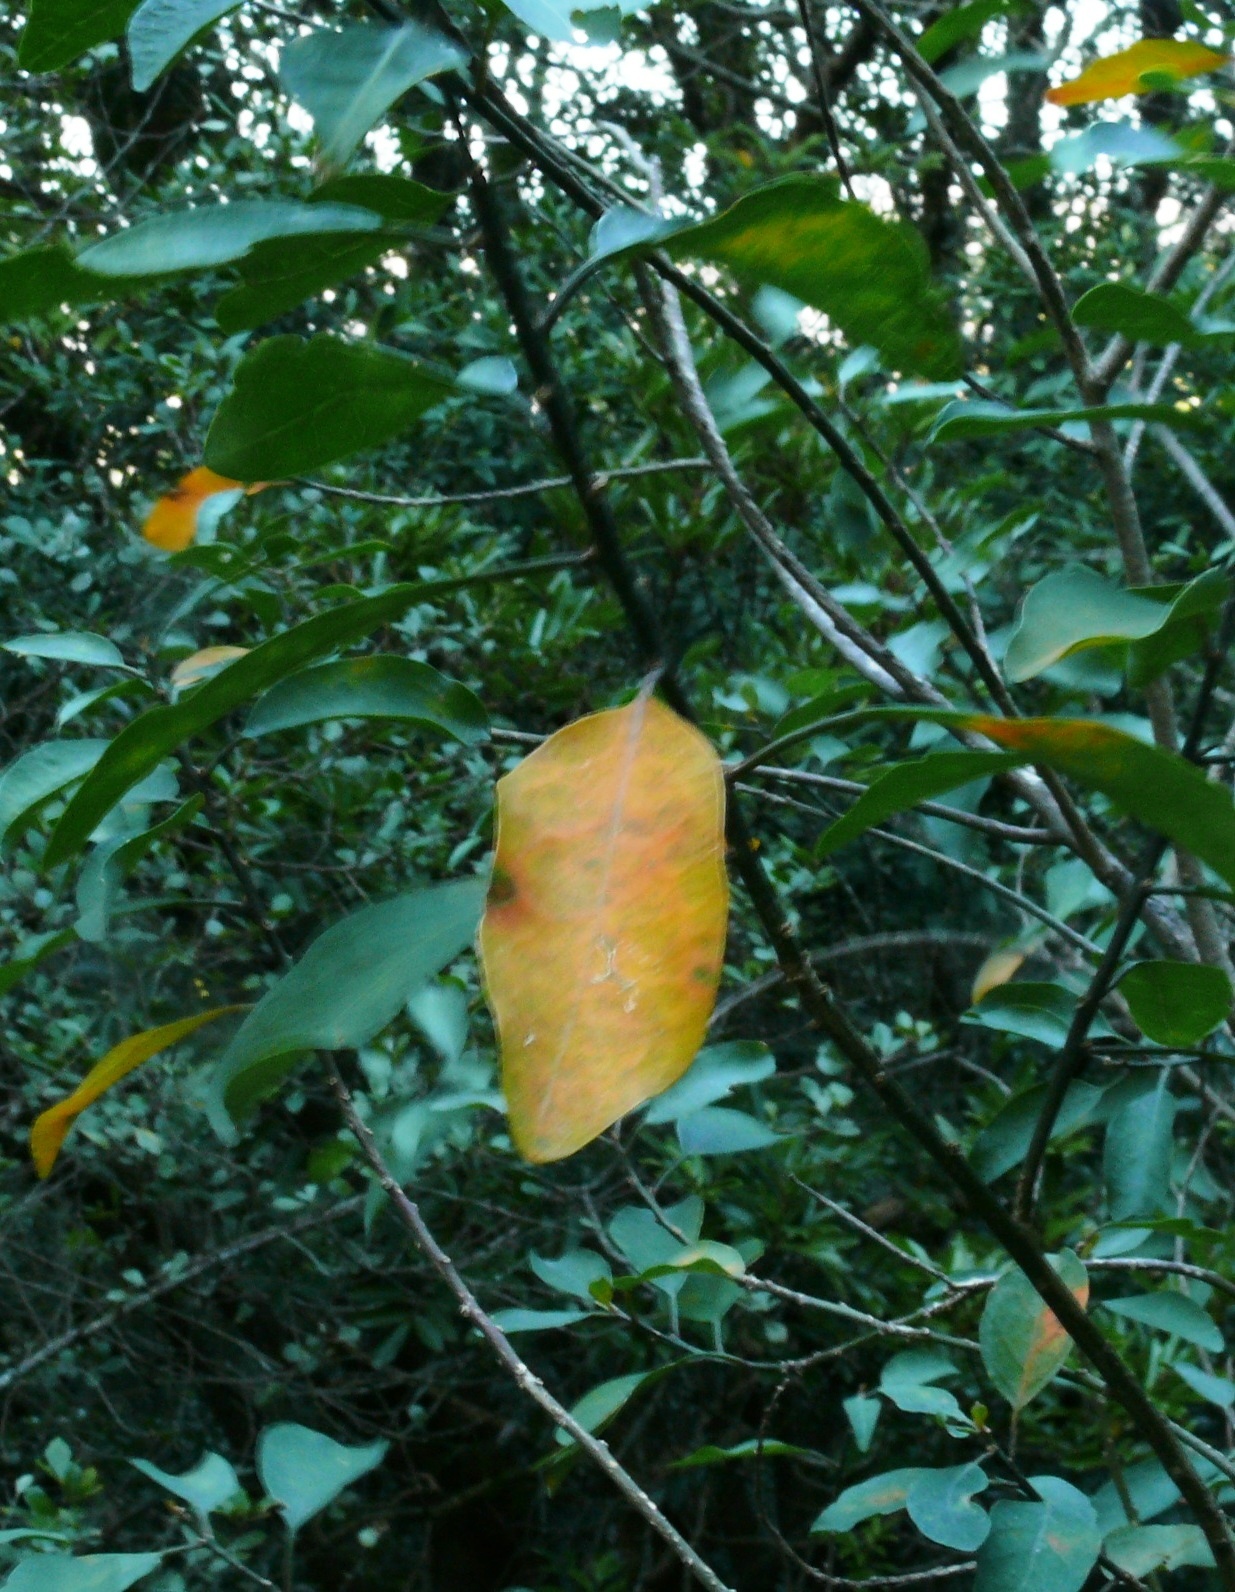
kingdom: Plantae
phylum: Tracheophyta
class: Magnoliopsida
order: Malpighiales
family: Peraceae
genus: Clutia
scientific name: Clutia pulchella
